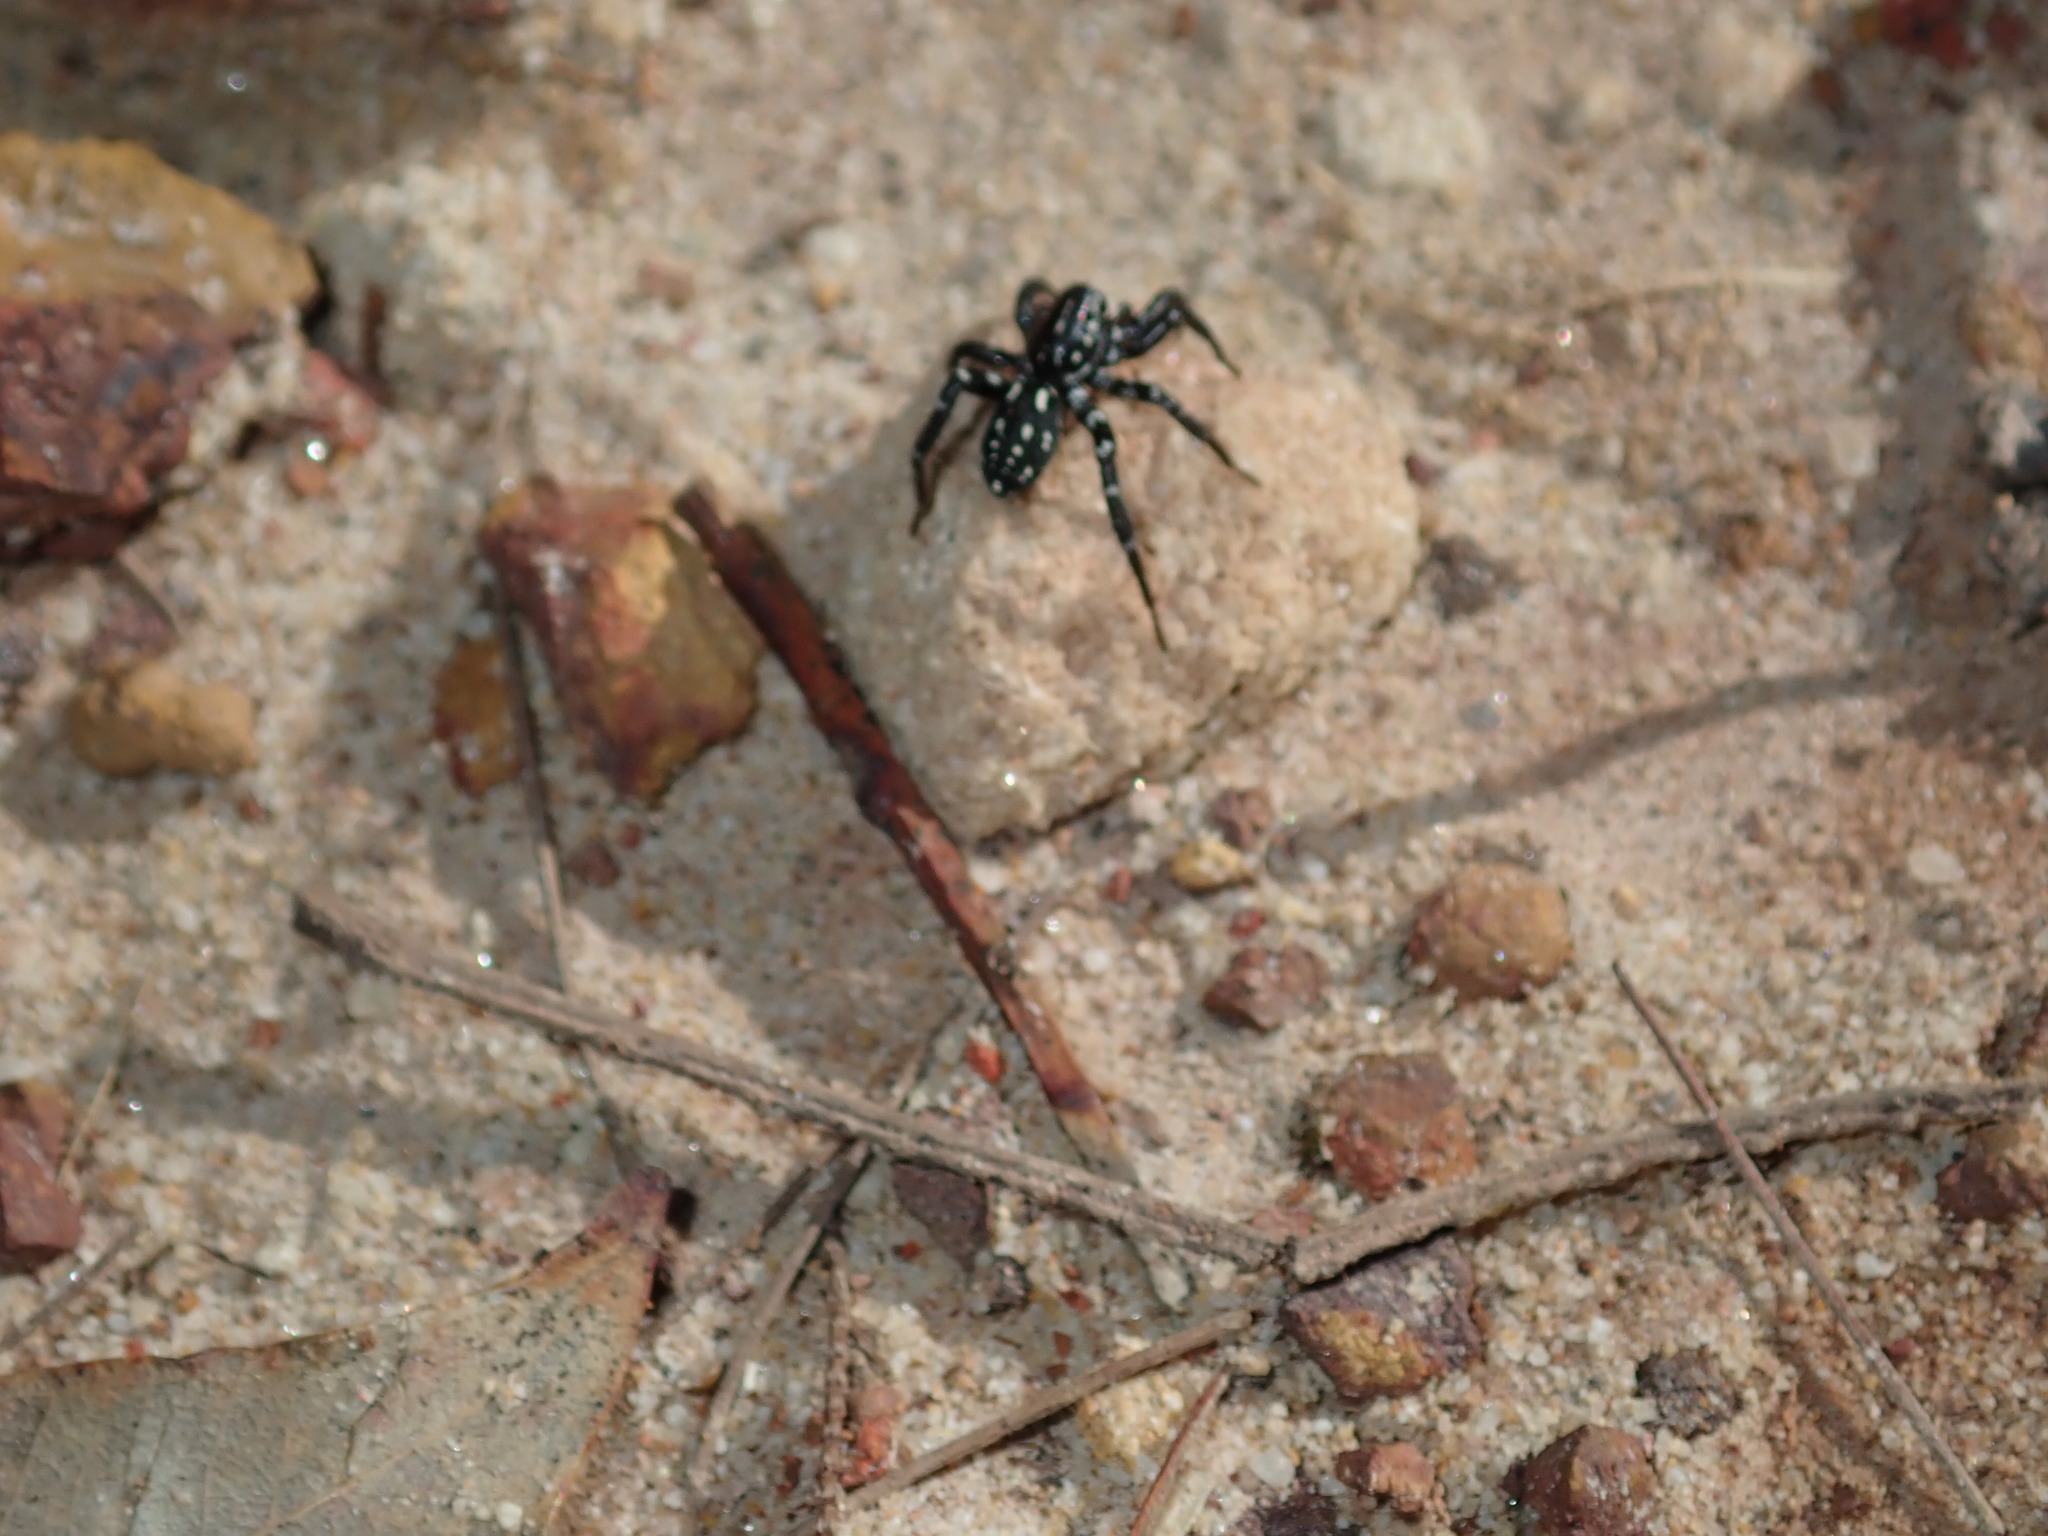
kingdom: Animalia
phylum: Arthropoda
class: Arachnida
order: Araneae
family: Corinnidae
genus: Nyssus
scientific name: Nyssus albopunctatus
